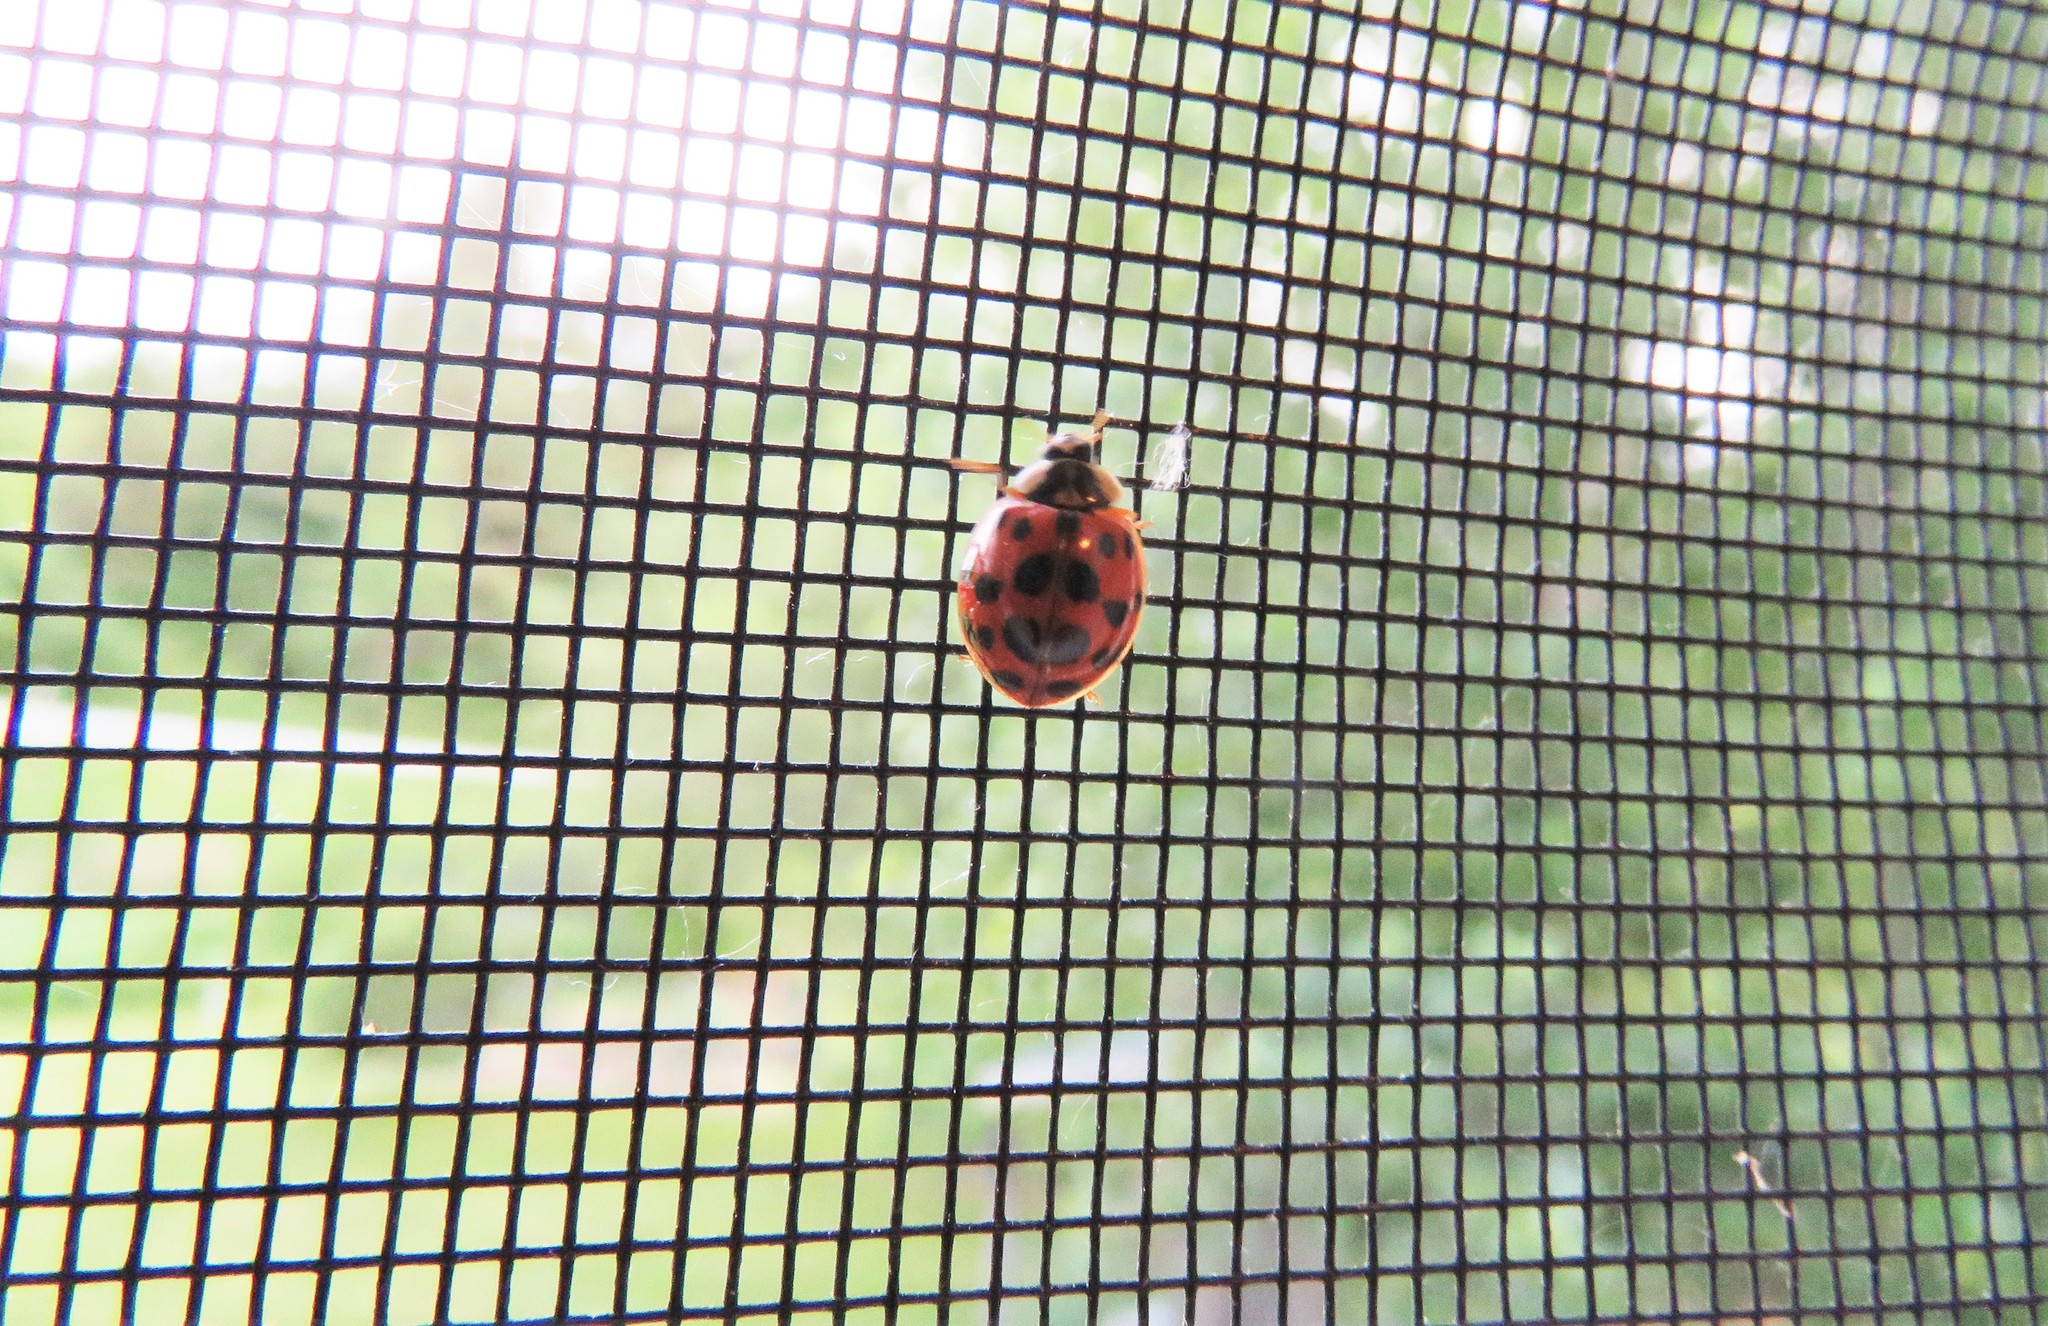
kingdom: Animalia
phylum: Arthropoda
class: Insecta
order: Coleoptera
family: Coccinellidae
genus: Harmonia
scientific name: Harmonia axyridis
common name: Harlequin ladybird
